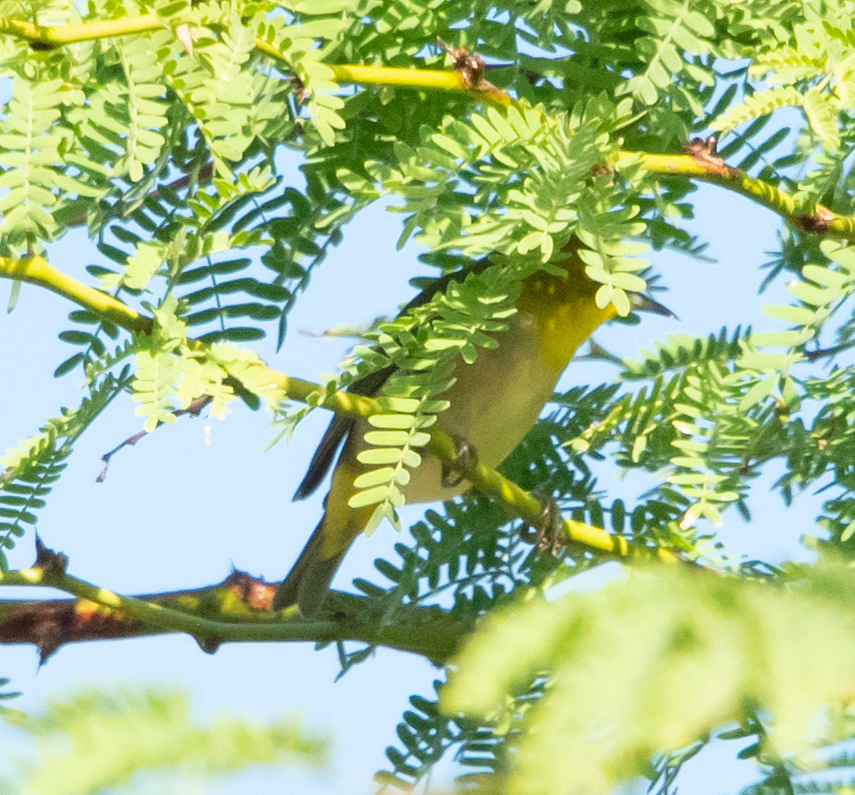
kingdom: Animalia
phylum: Chordata
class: Aves
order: Passeriformes
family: Zosteropidae
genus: Zosterops
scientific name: Zosterops japonicus
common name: Japanese white-eye
